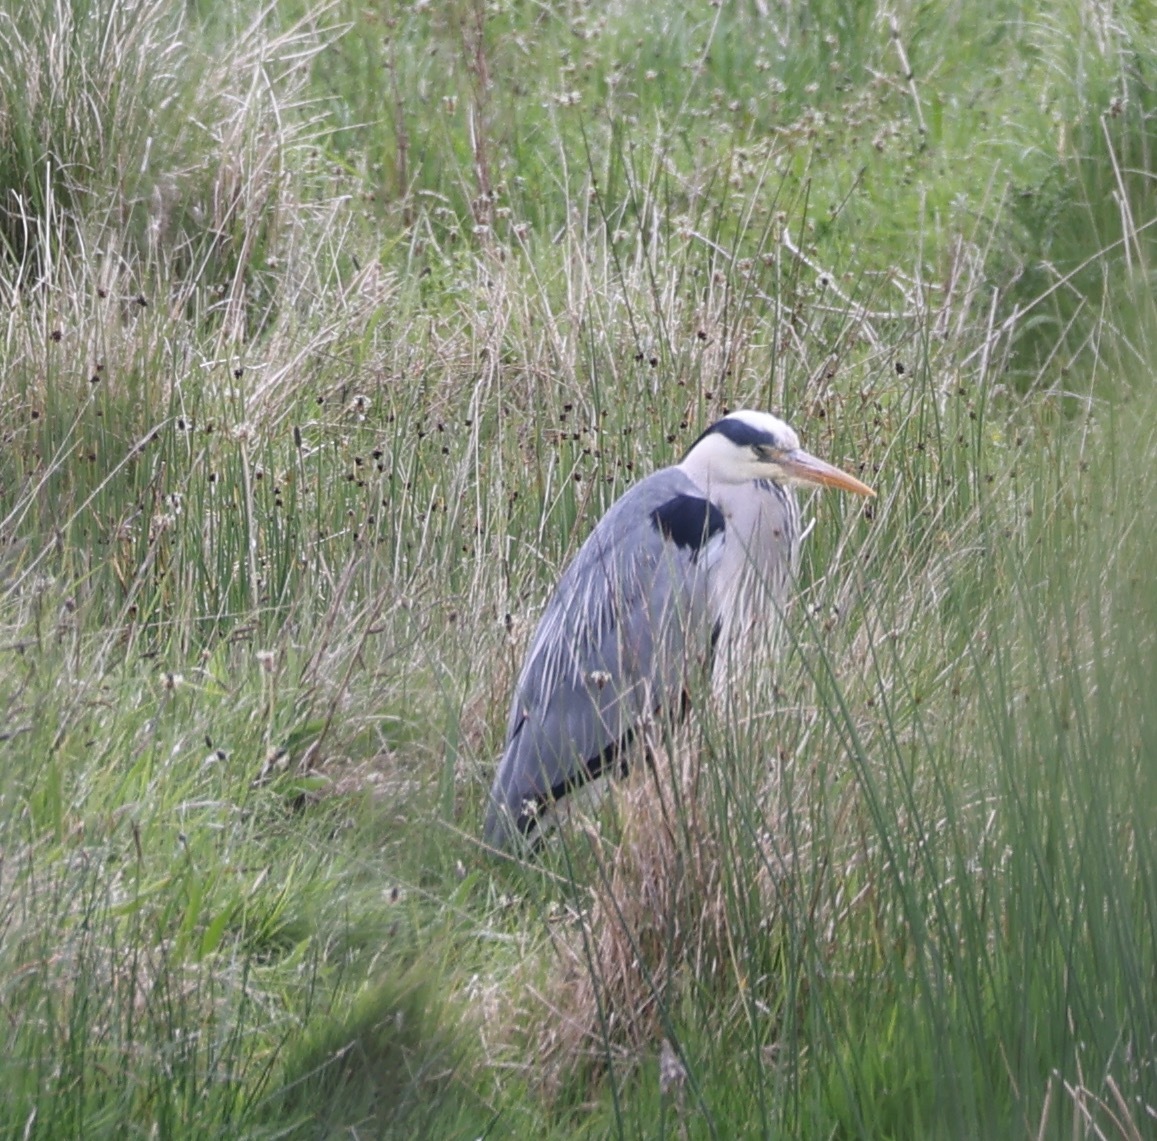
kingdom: Animalia
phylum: Chordata
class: Aves
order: Pelecaniformes
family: Ardeidae
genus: Ardea
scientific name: Ardea cinerea
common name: Grey heron
